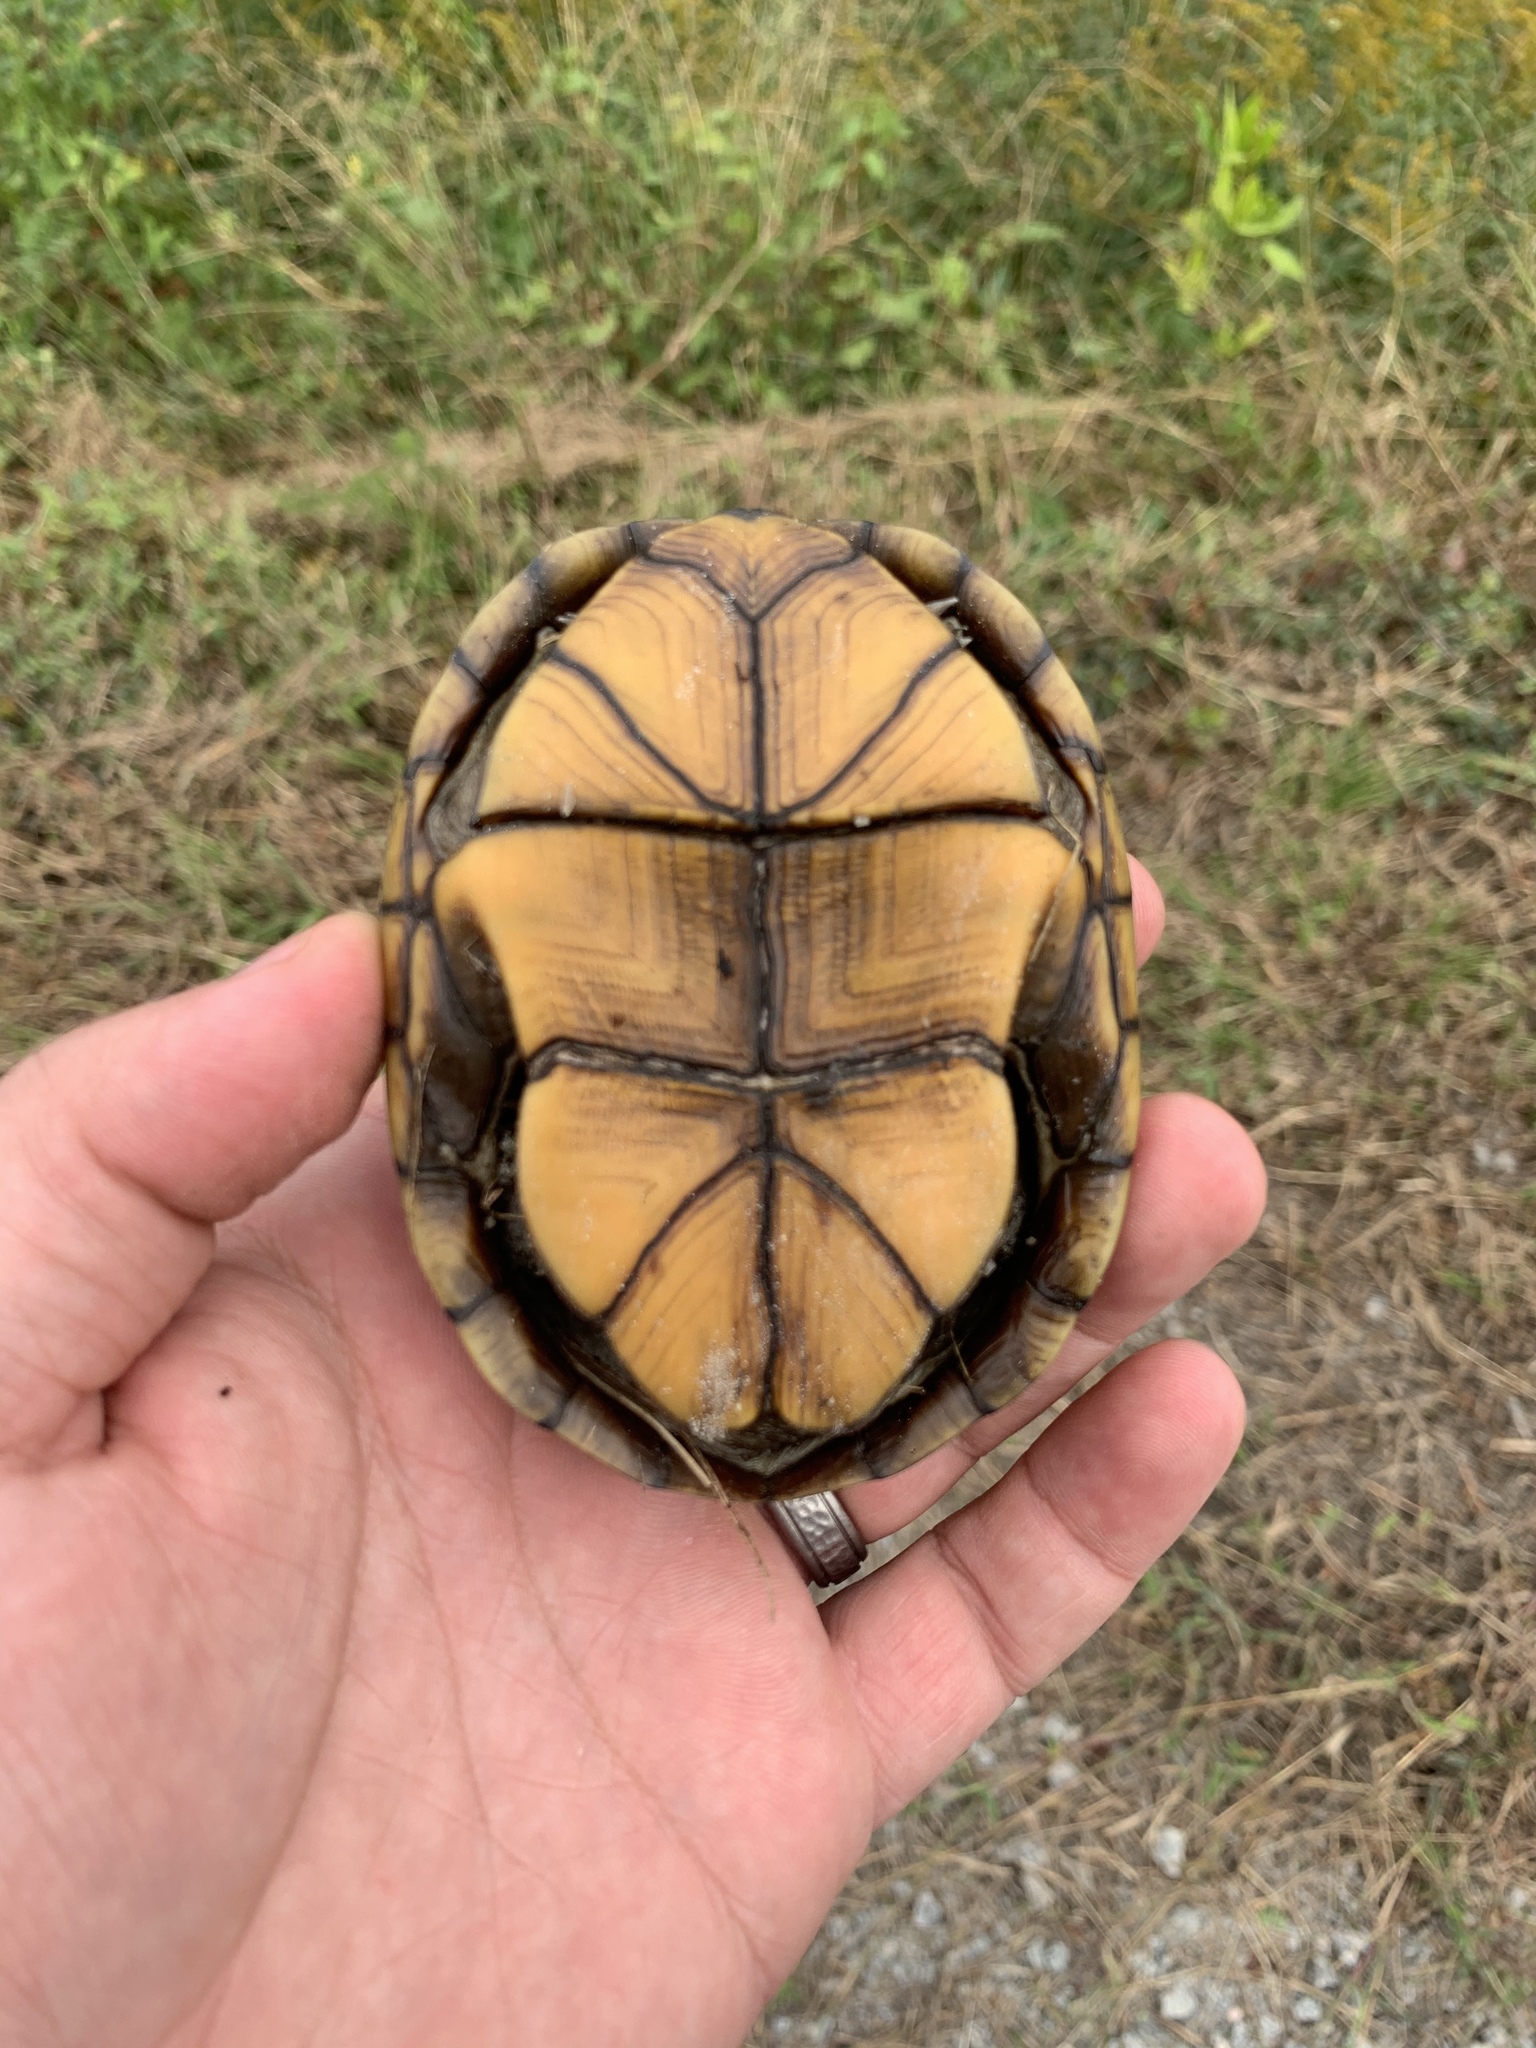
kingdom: Animalia
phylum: Chordata
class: Testudines
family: Kinosternidae
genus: Kinosternon
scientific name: Kinosternon subrubrum
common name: Eastern mud turtle
